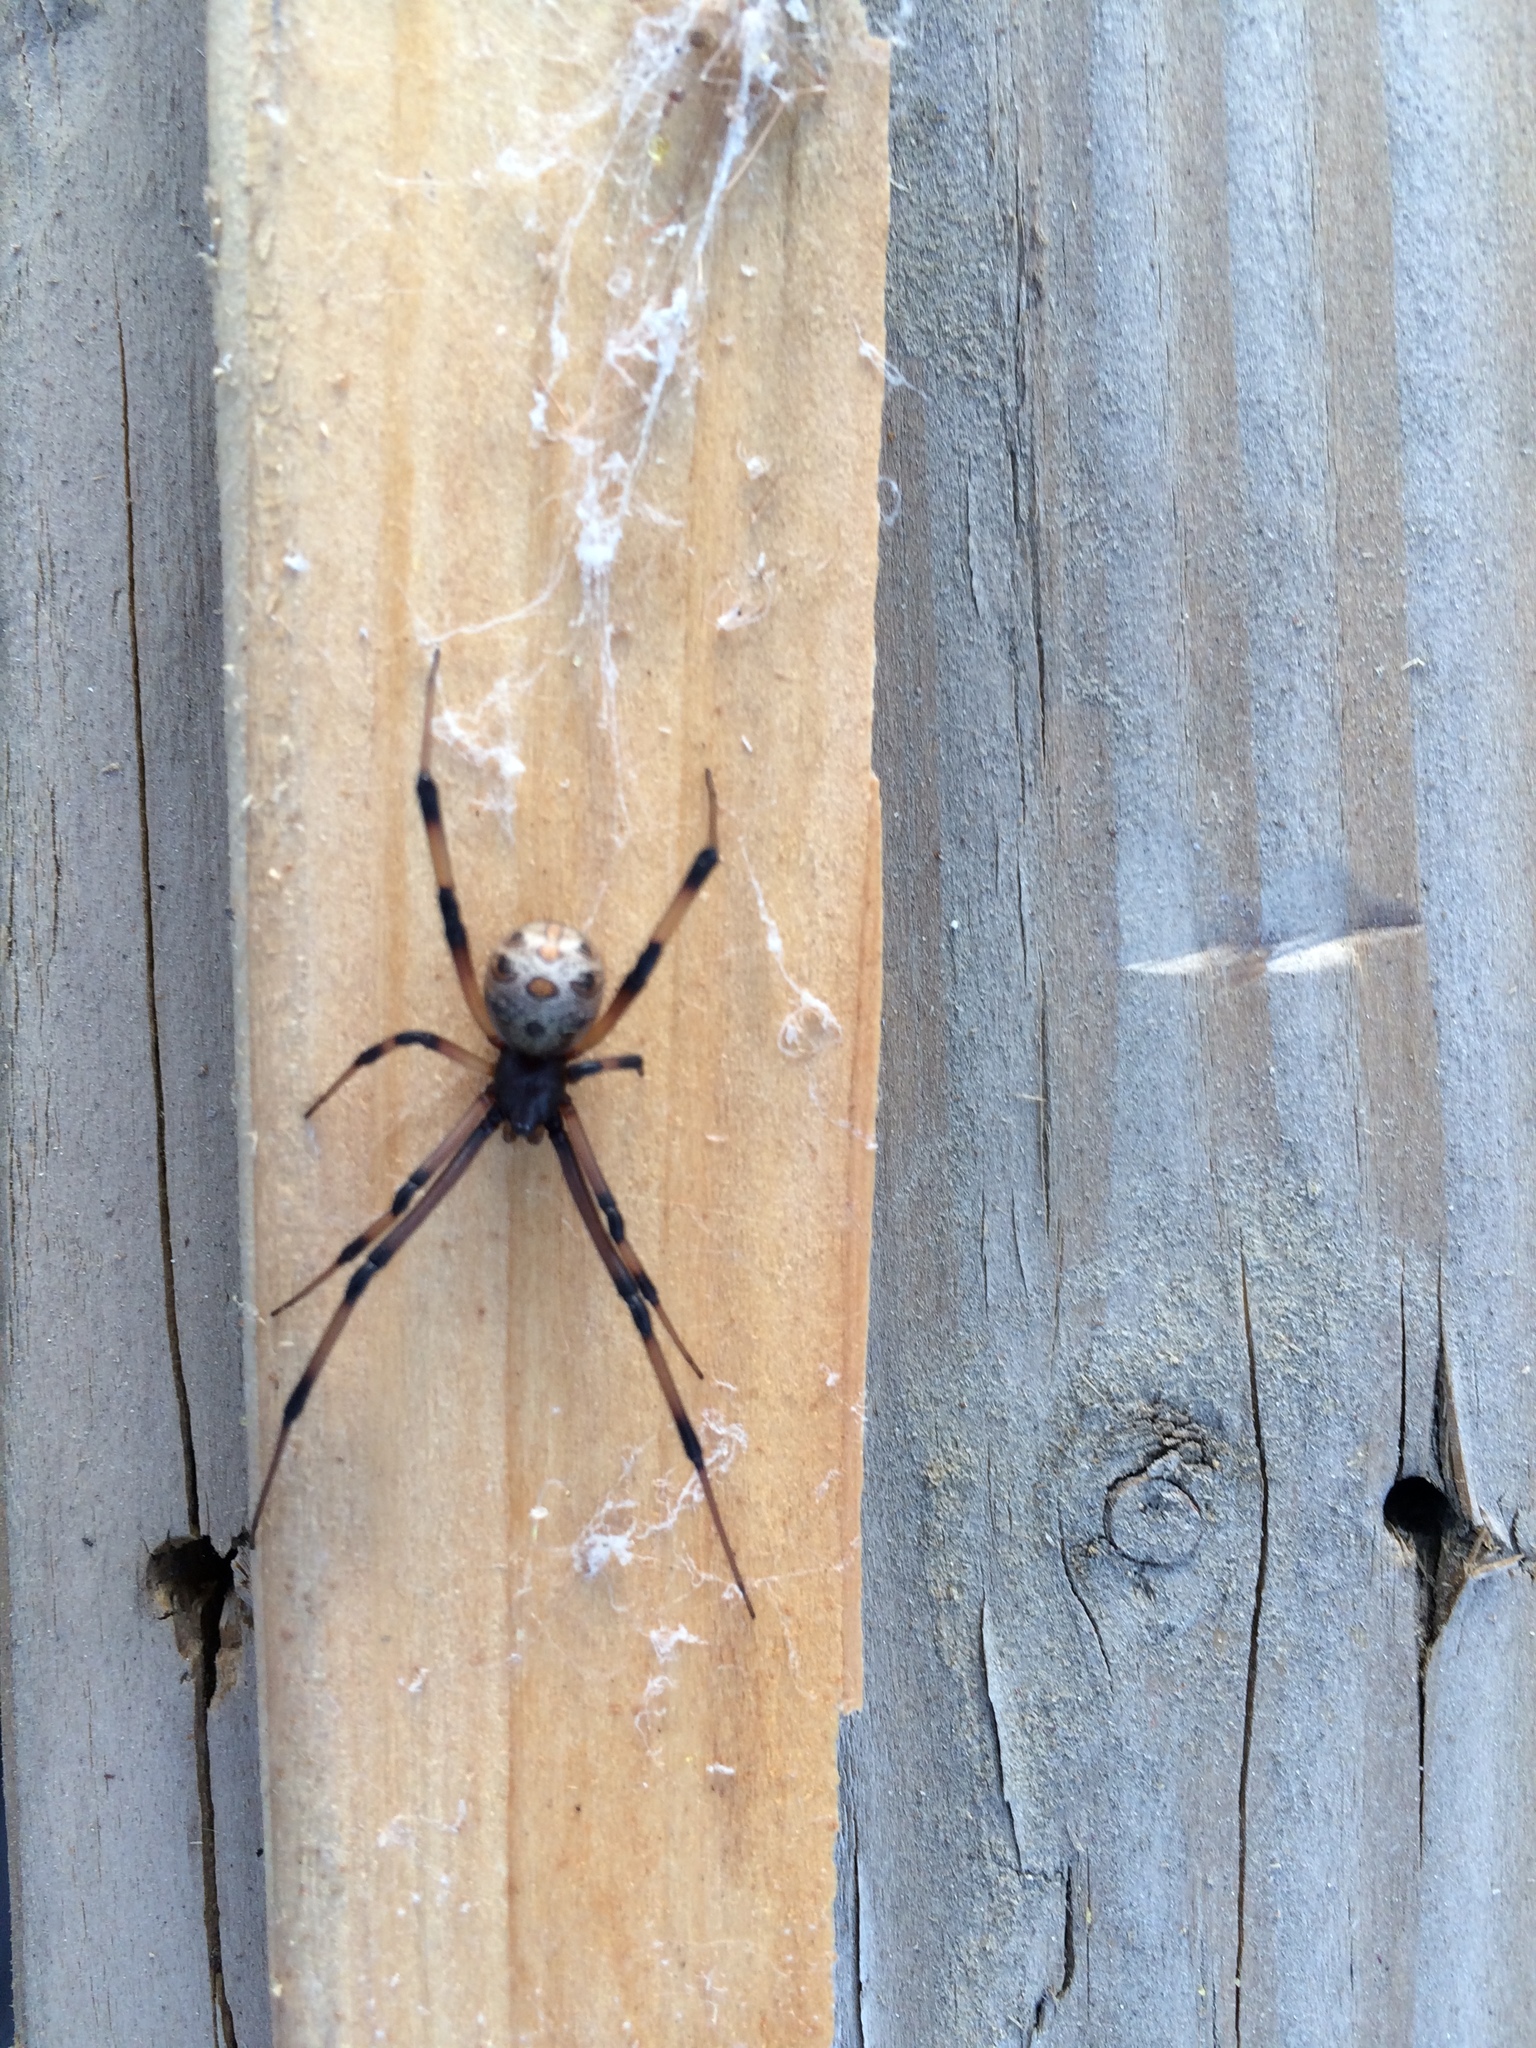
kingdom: Animalia
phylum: Arthropoda
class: Arachnida
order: Araneae
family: Theridiidae
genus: Latrodectus
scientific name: Latrodectus geometricus
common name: Brown widow spider
